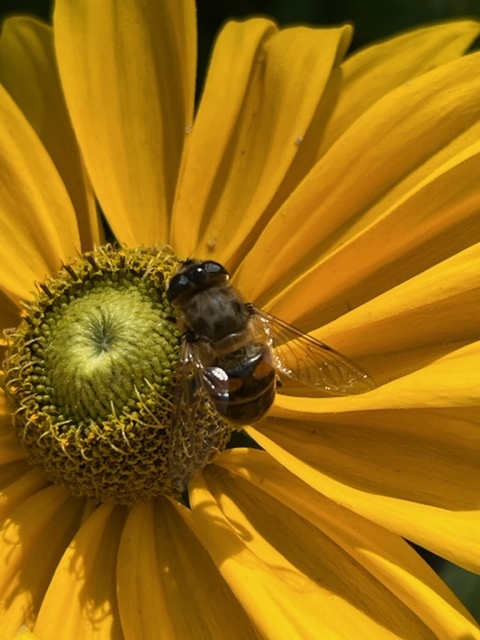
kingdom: Animalia
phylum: Arthropoda
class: Insecta
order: Diptera
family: Syrphidae
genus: Eristalis
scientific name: Eristalis tenax
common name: Drone fly
